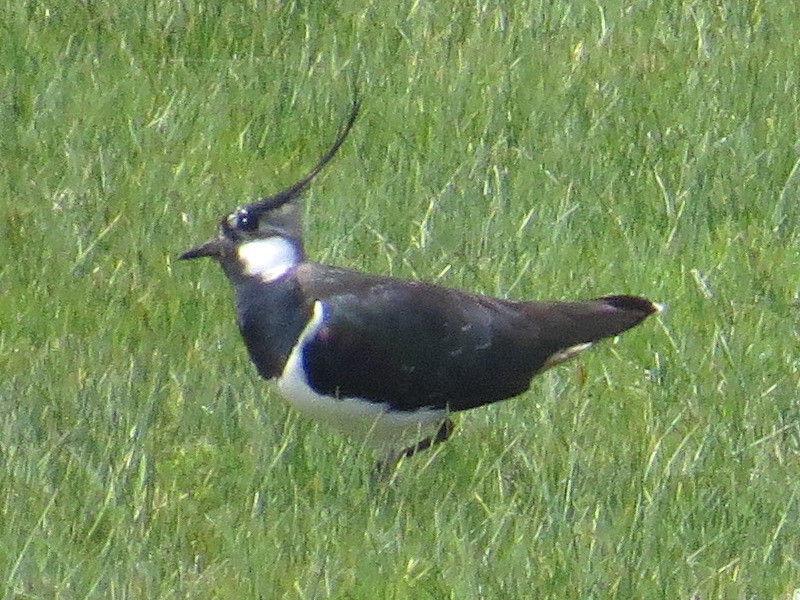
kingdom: Animalia
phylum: Chordata
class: Aves
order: Charadriiformes
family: Charadriidae
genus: Vanellus
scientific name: Vanellus vanellus
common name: Northern lapwing
